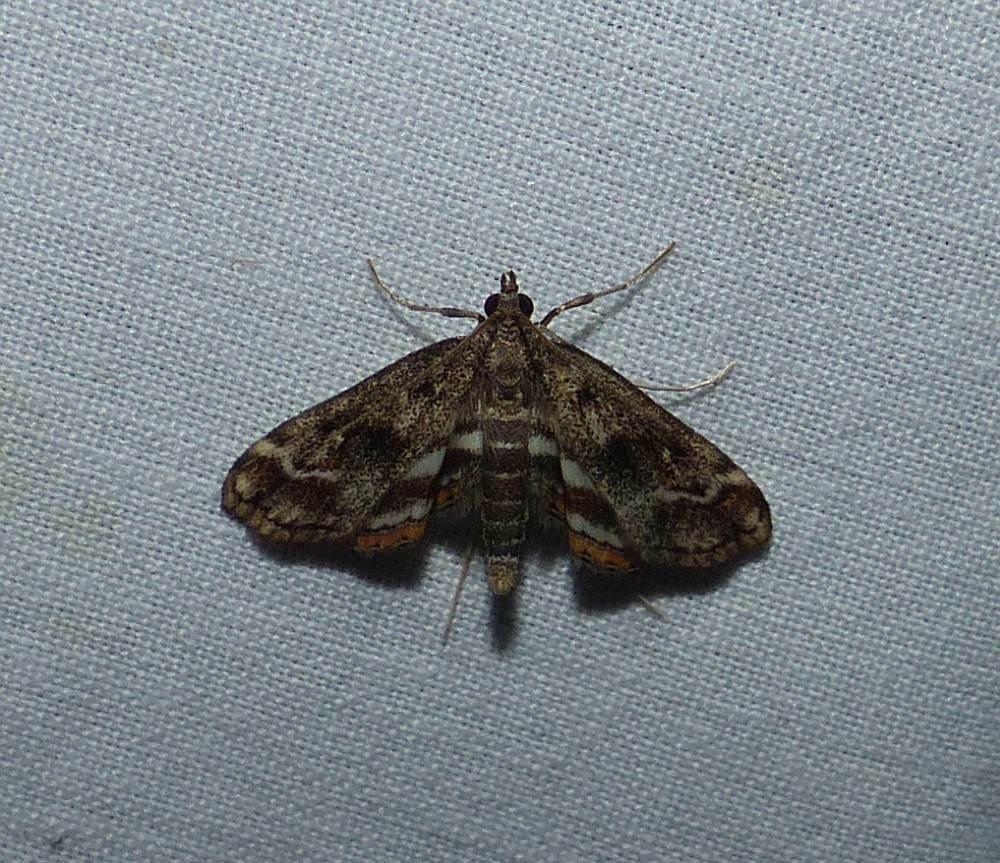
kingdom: Animalia
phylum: Arthropoda
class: Insecta
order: Lepidoptera
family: Crambidae
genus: Parapoynx
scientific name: Parapoynx obscuralis
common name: American china-mark
